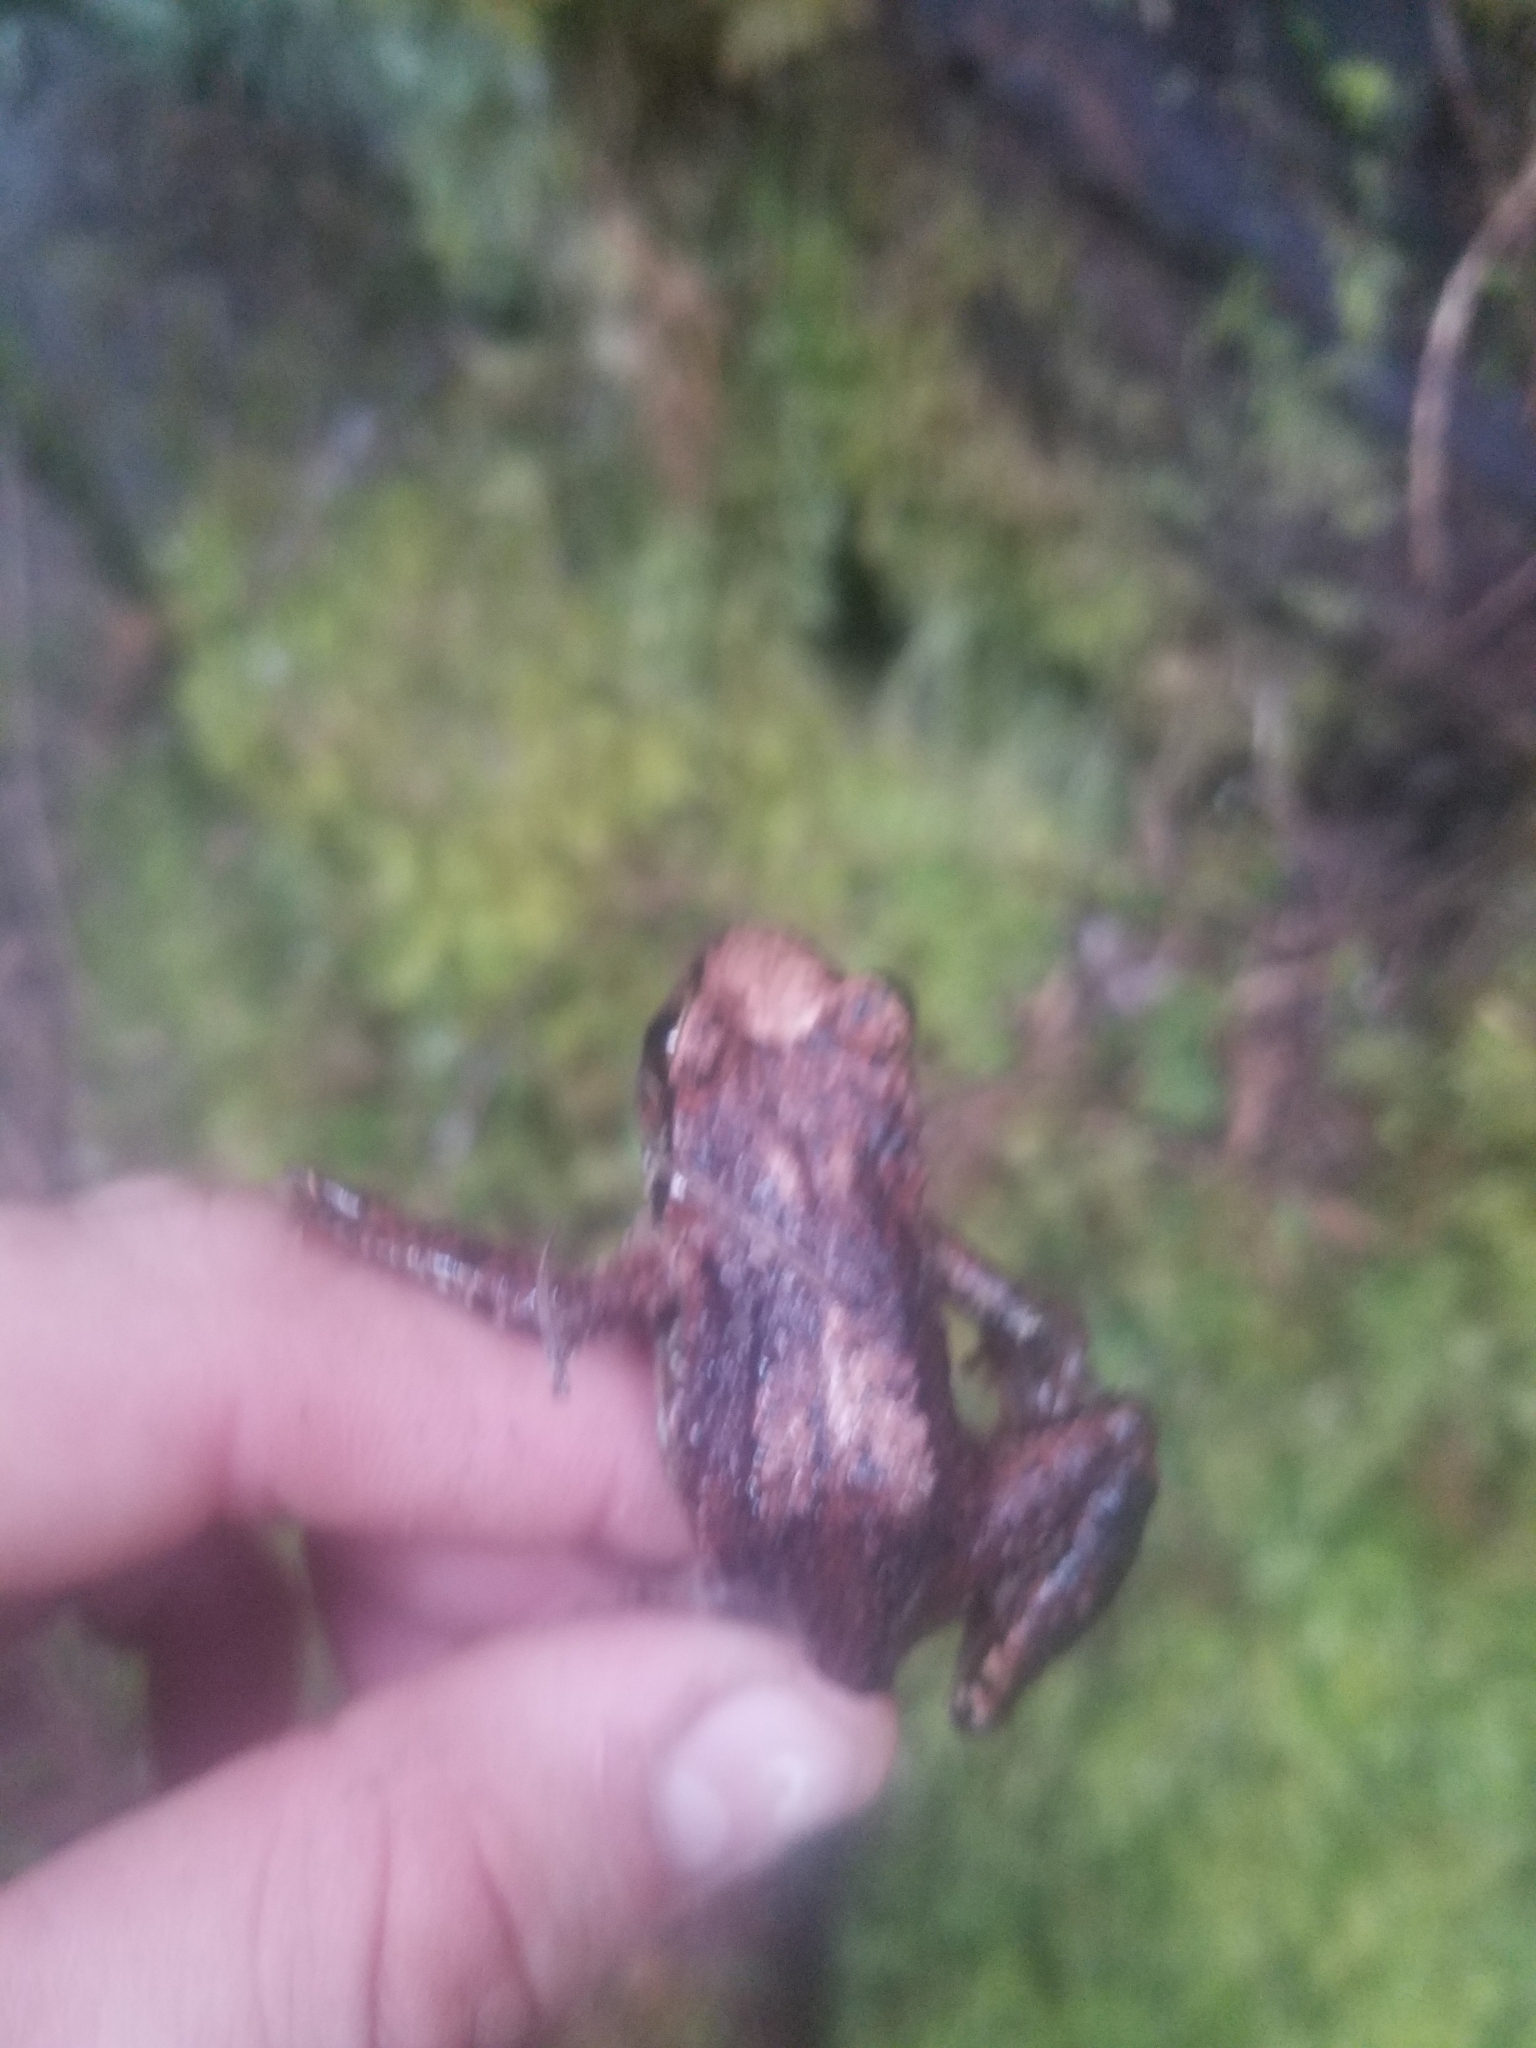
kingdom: Animalia
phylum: Chordata
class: Amphibia
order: Anura
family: Ascaphidae
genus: Ascaphus
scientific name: Ascaphus truei
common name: Tailed frog
